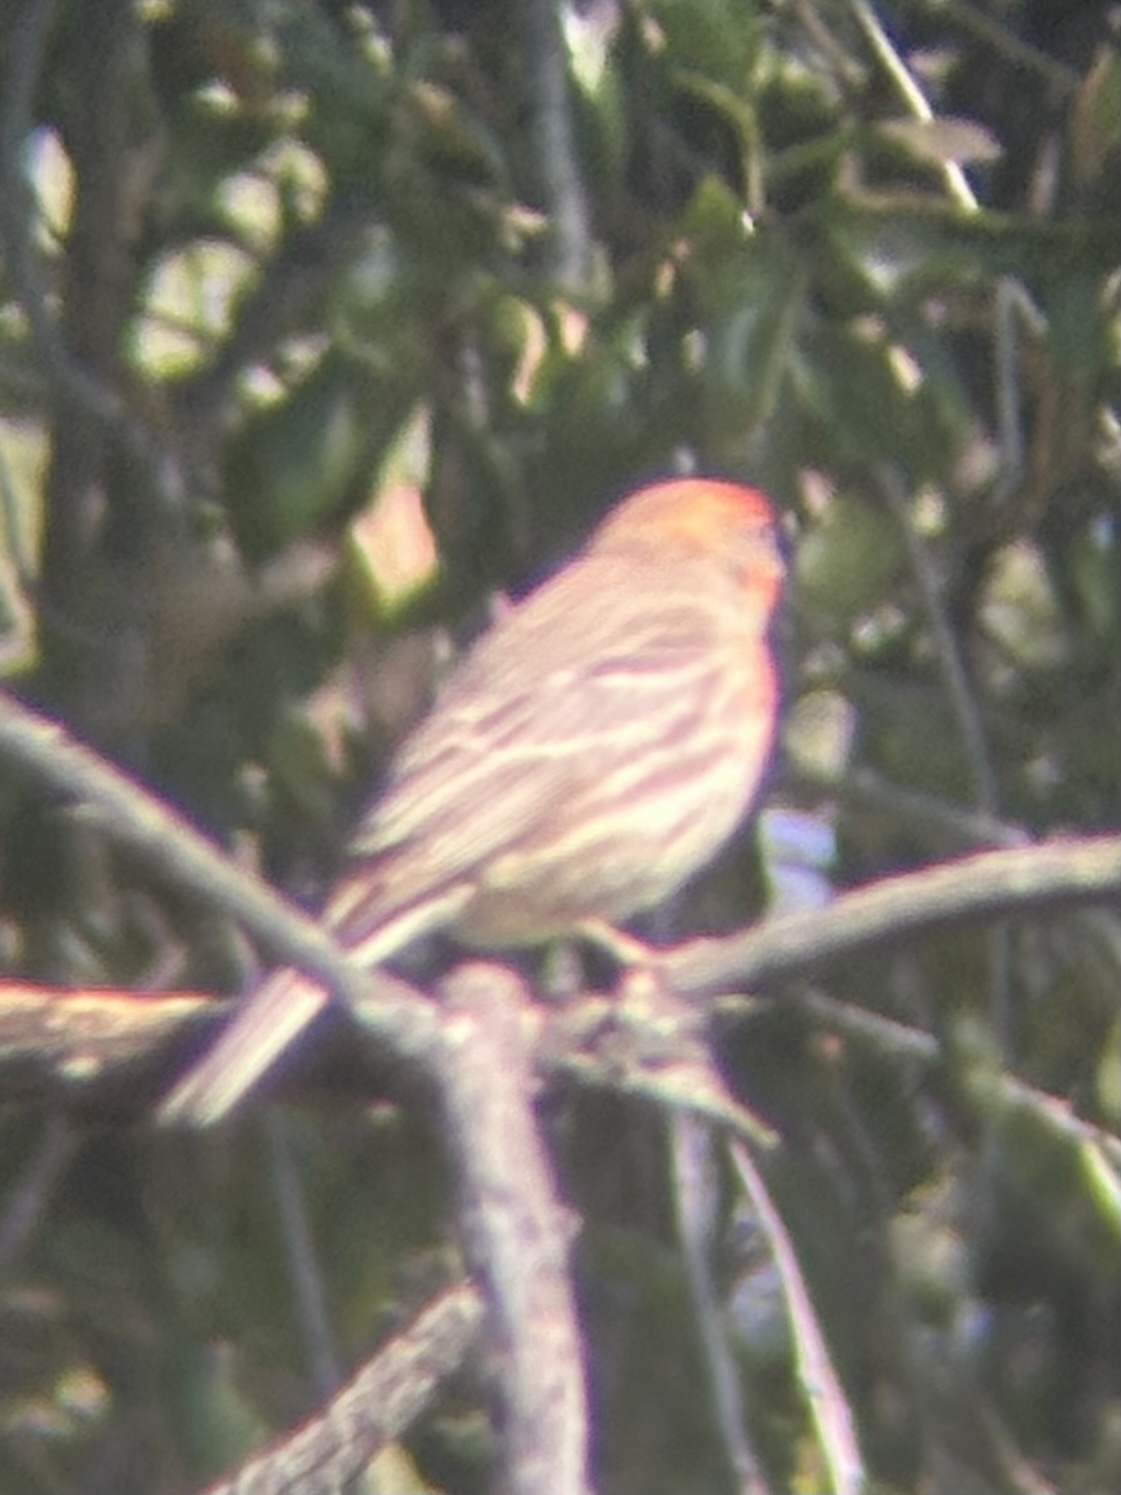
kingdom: Animalia
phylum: Chordata
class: Aves
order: Passeriformes
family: Fringillidae
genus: Haemorhous
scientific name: Haemorhous mexicanus
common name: House finch
